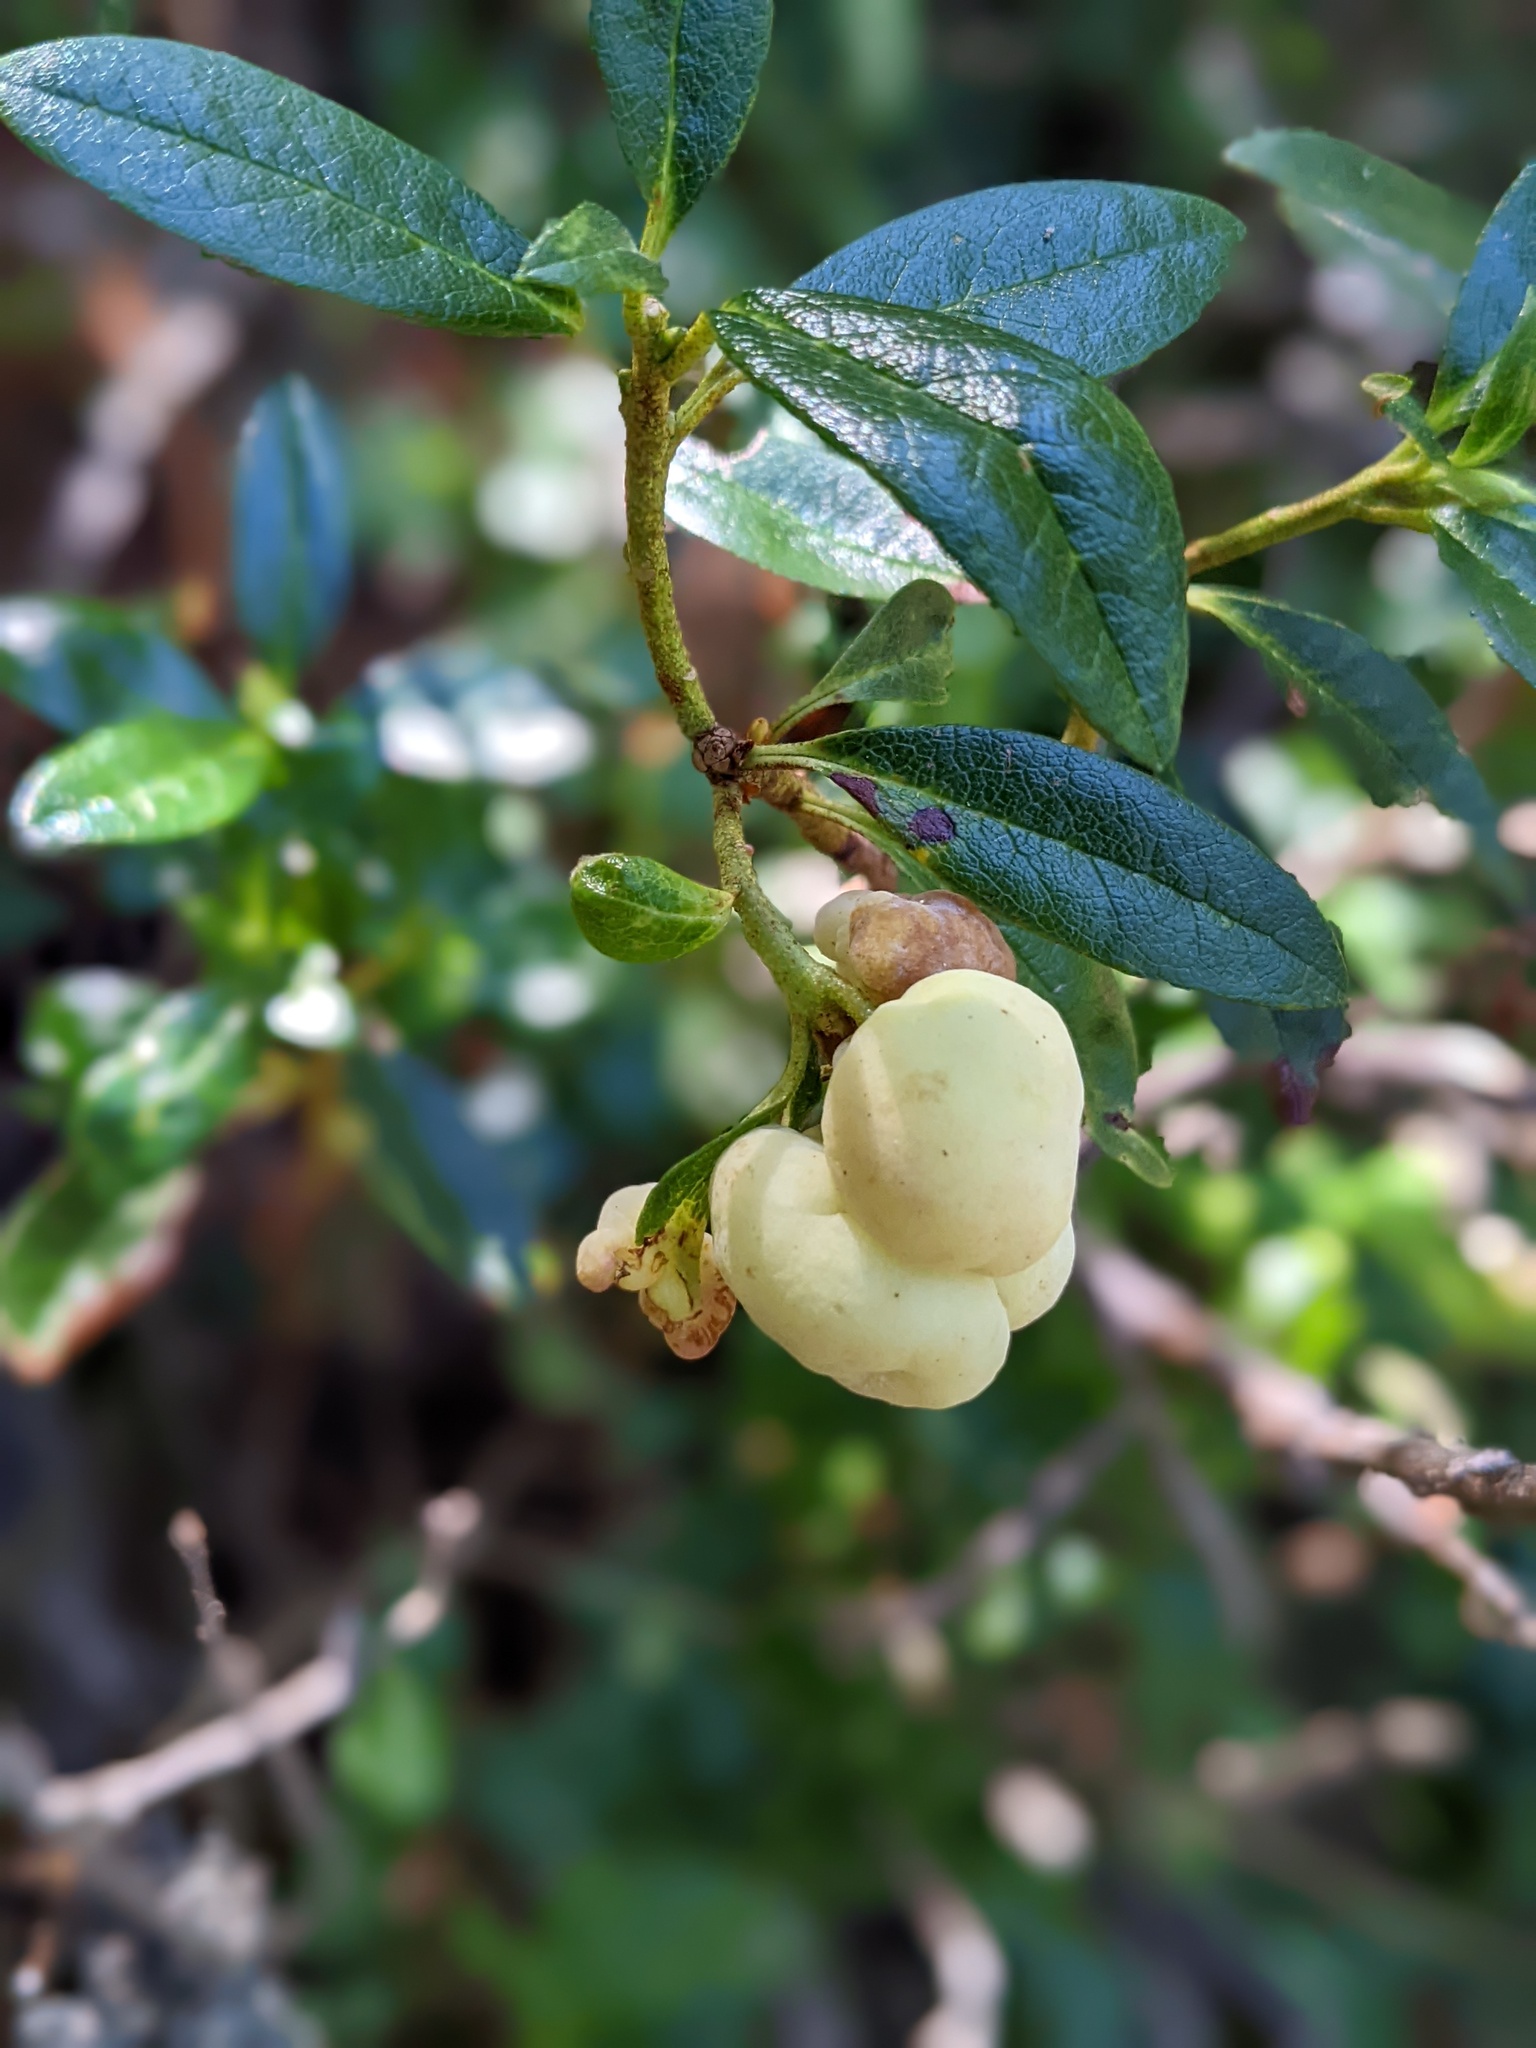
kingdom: Fungi
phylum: Basidiomycota
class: Exobasidiomycetes
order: Exobasidiales
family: Exobasidiaceae
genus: Exobasidium
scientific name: Exobasidium rhododendri
